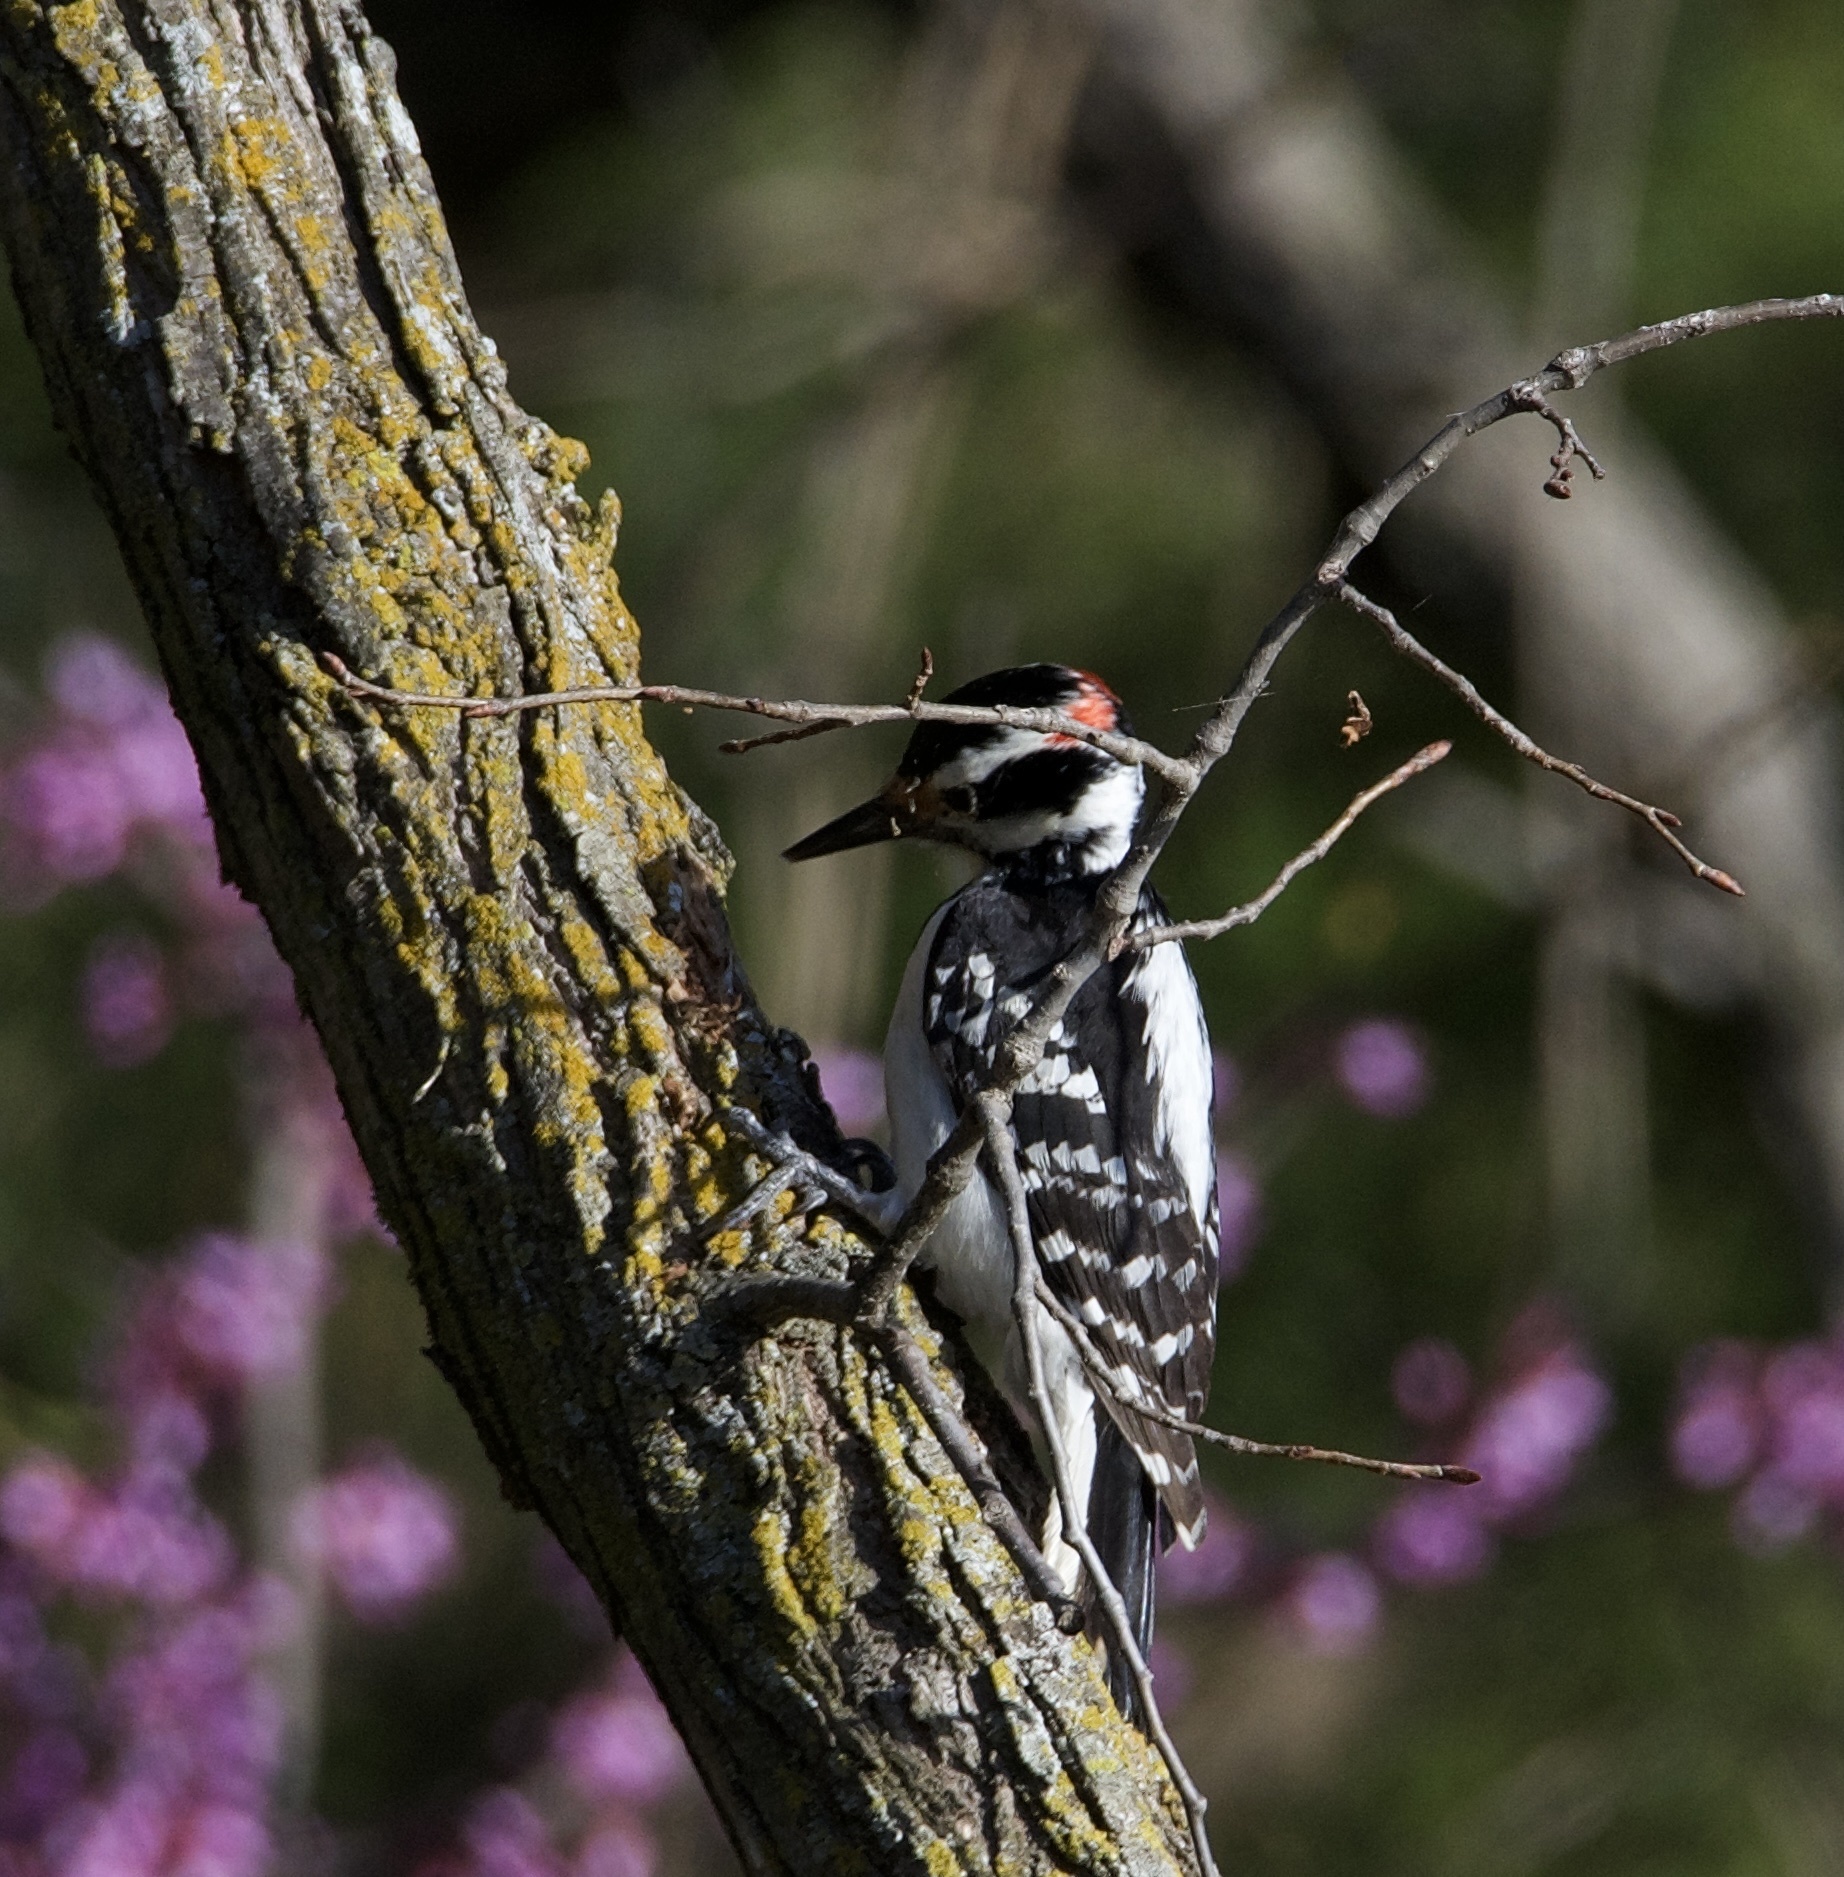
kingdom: Animalia
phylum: Chordata
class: Aves
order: Piciformes
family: Picidae
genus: Leuconotopicus
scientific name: Leuconotopicus villosus
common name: Hairy woodpecker
